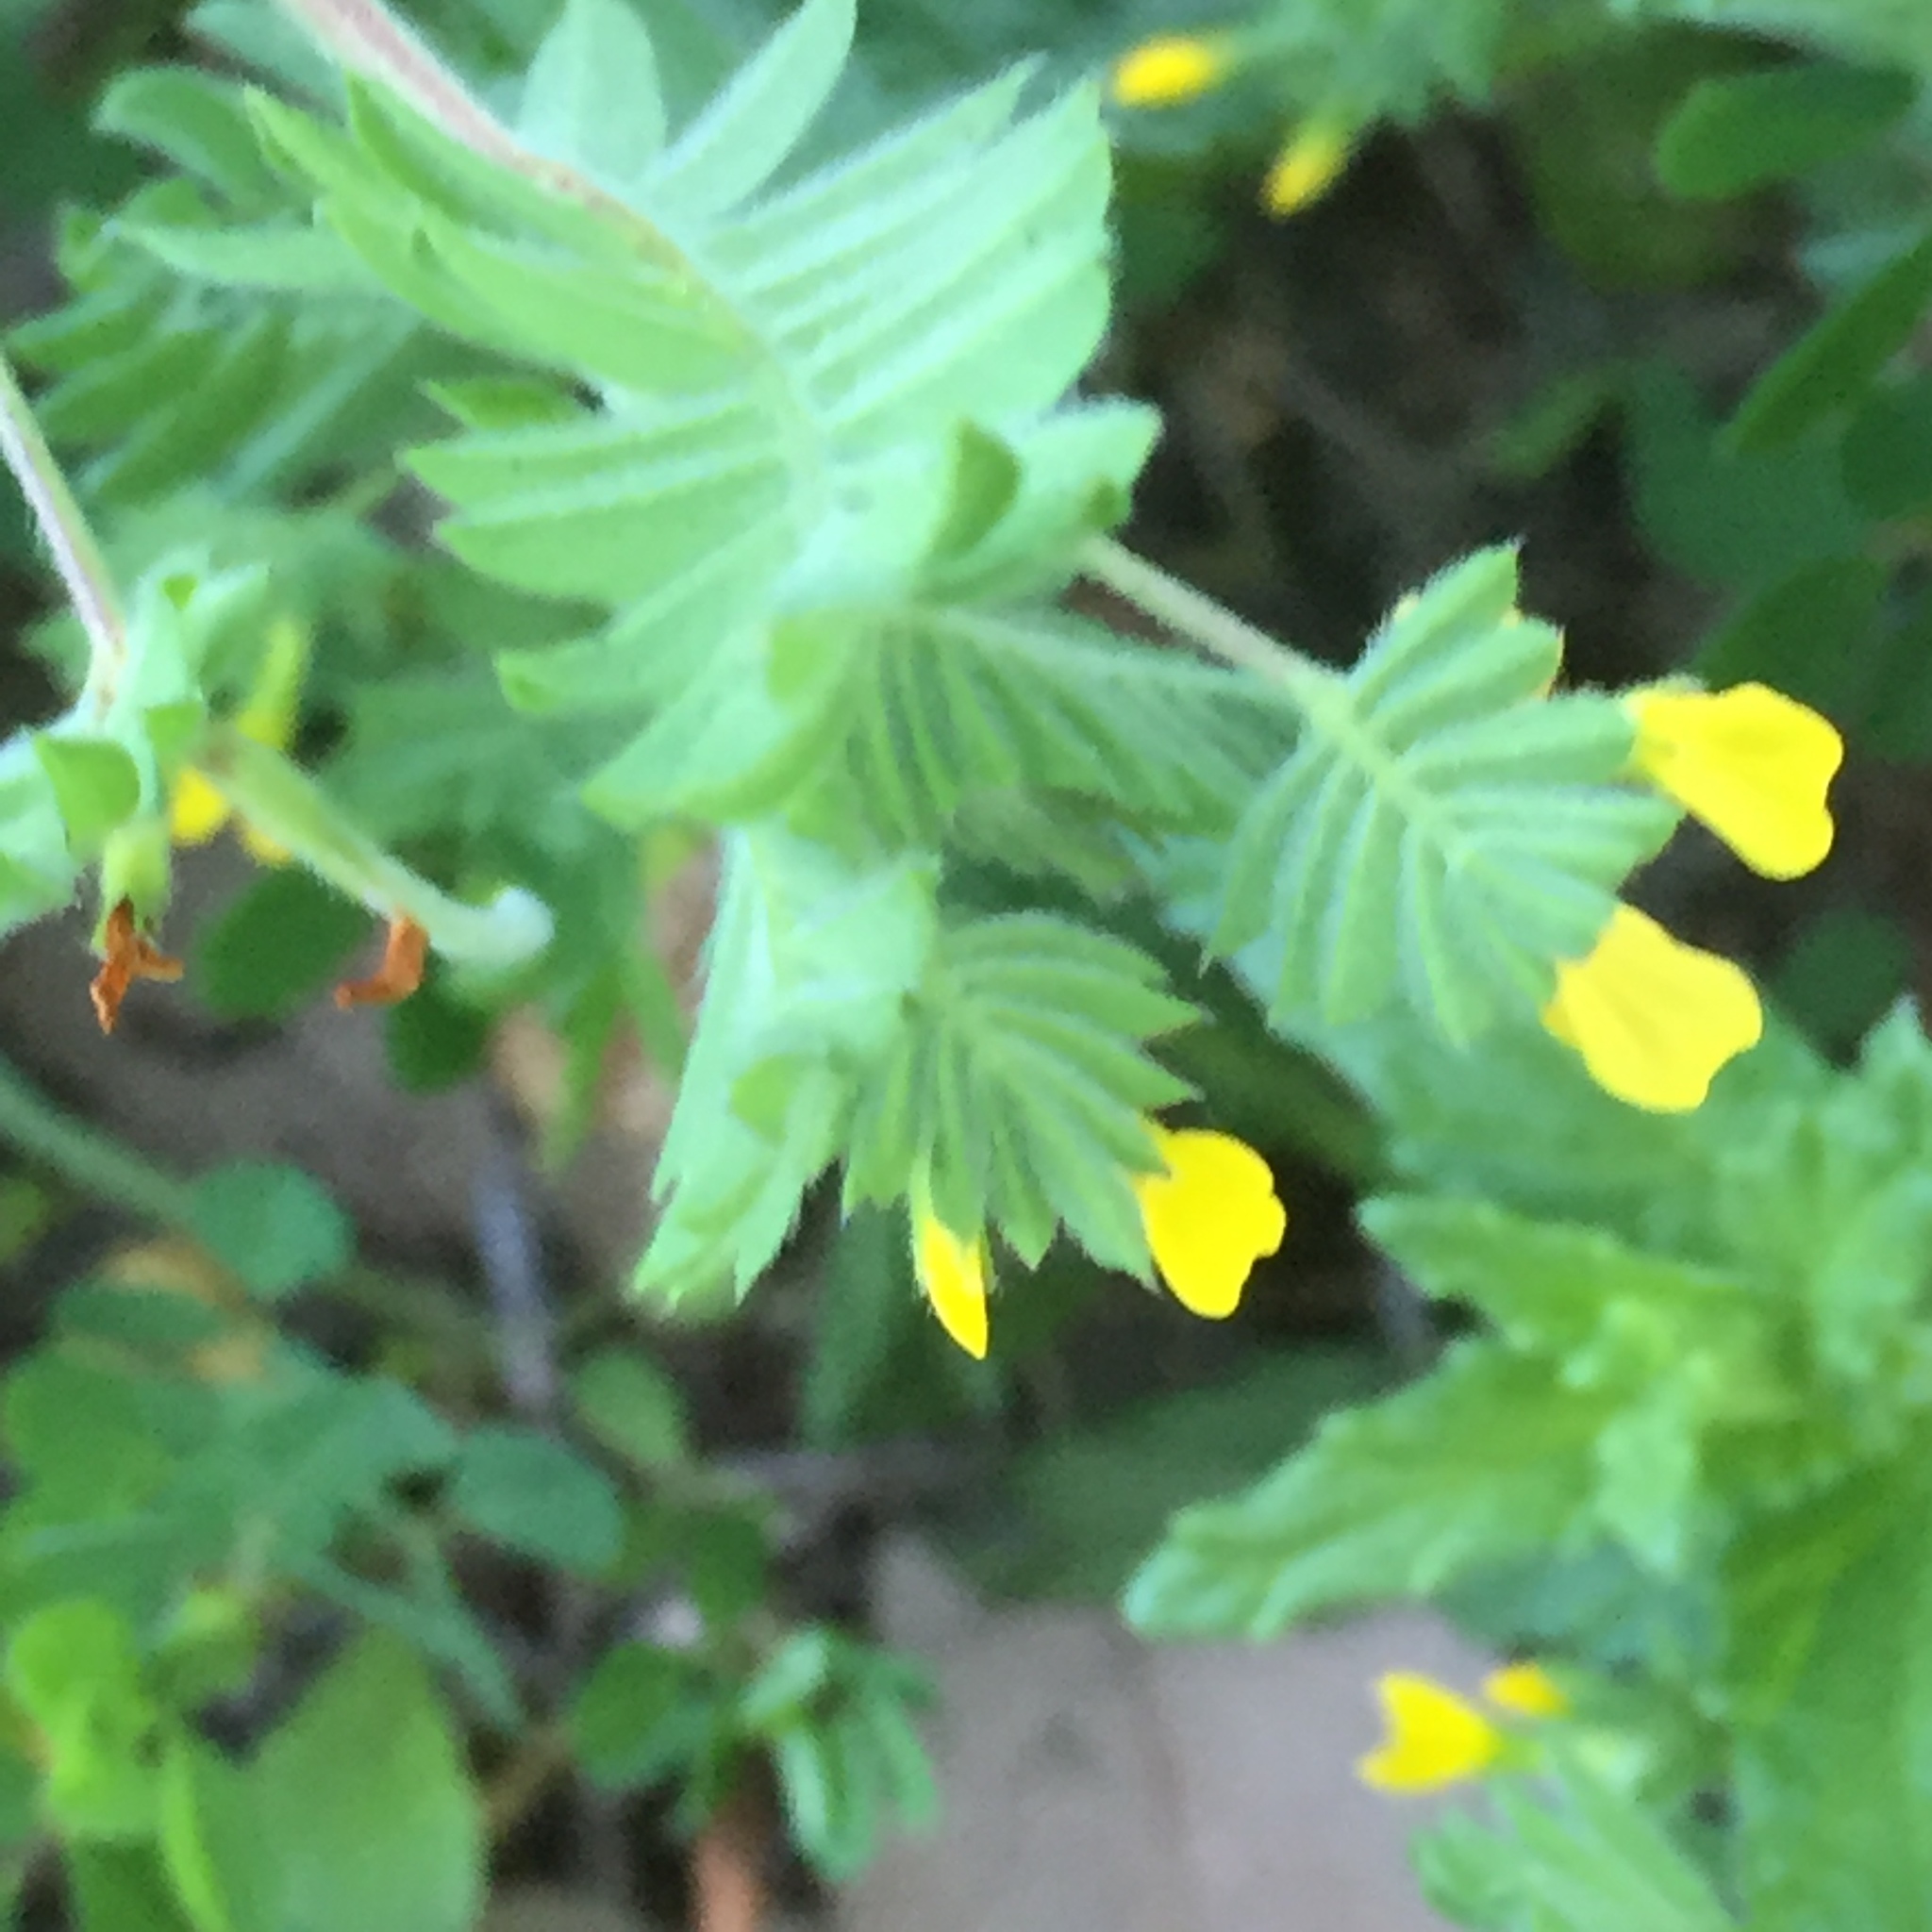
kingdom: Plantae
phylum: Tracheophyta
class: Magnoliopsida
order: Fabales
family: Fabaceae
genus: Ornithopus
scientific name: Ornithopus compressus
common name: Yellow serradella
